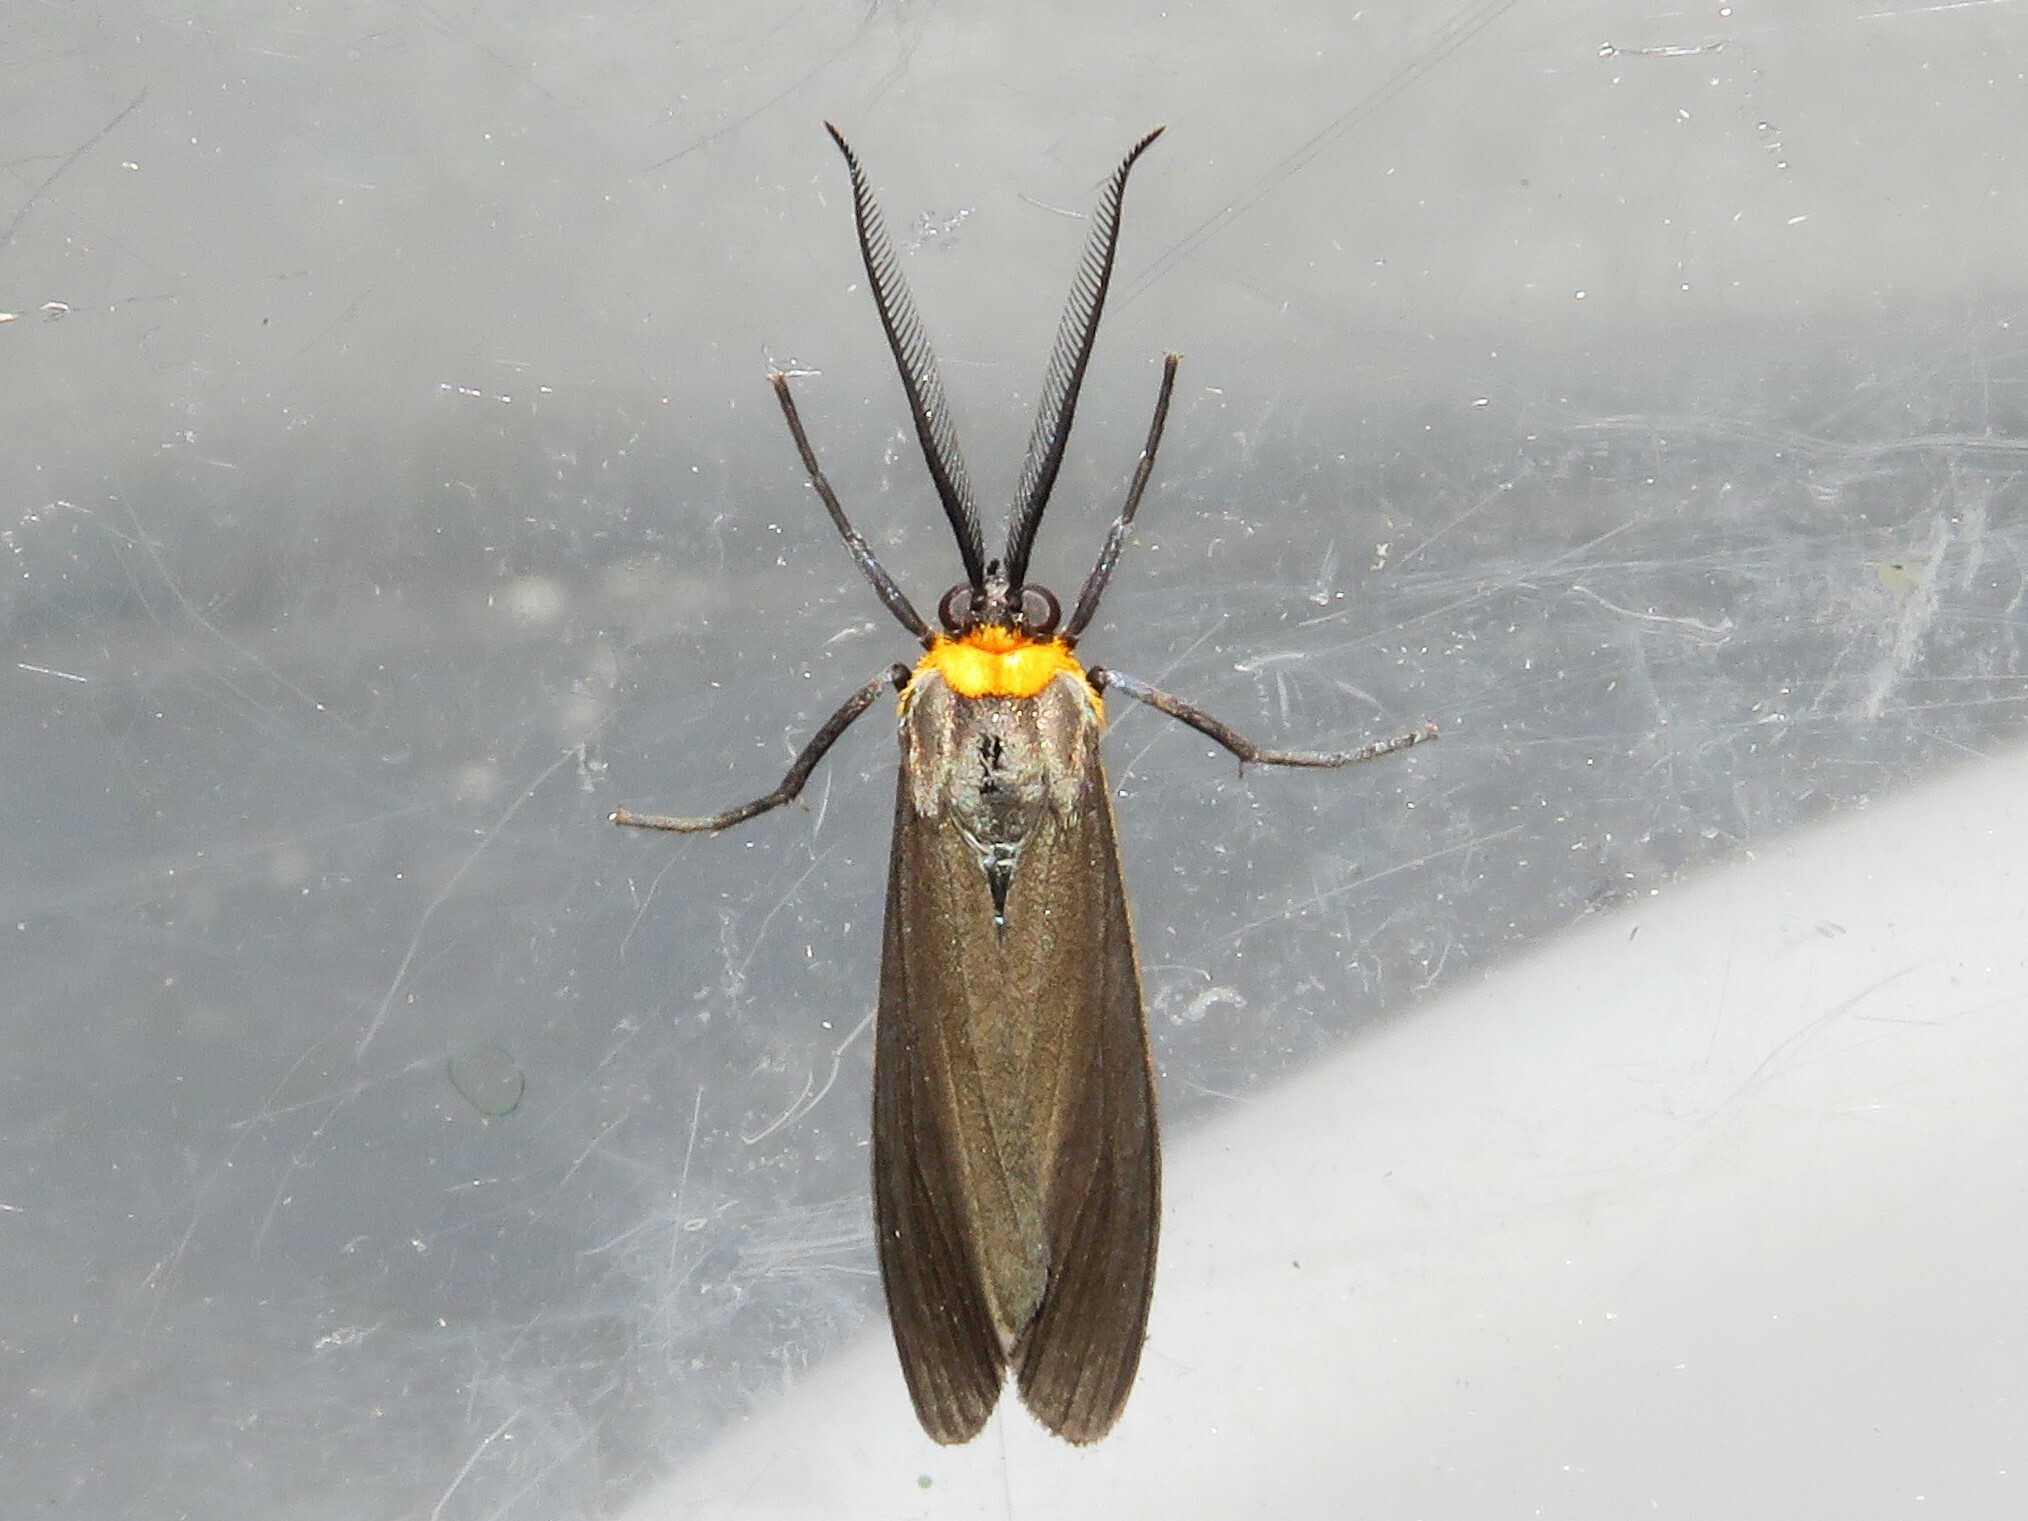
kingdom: Animalia
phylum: Arthropoda
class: Insecta
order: Lepidoptera
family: Erebidae
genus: Cisseps
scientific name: Cisseps fulvicollis
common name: Yellow-collared scape moth
